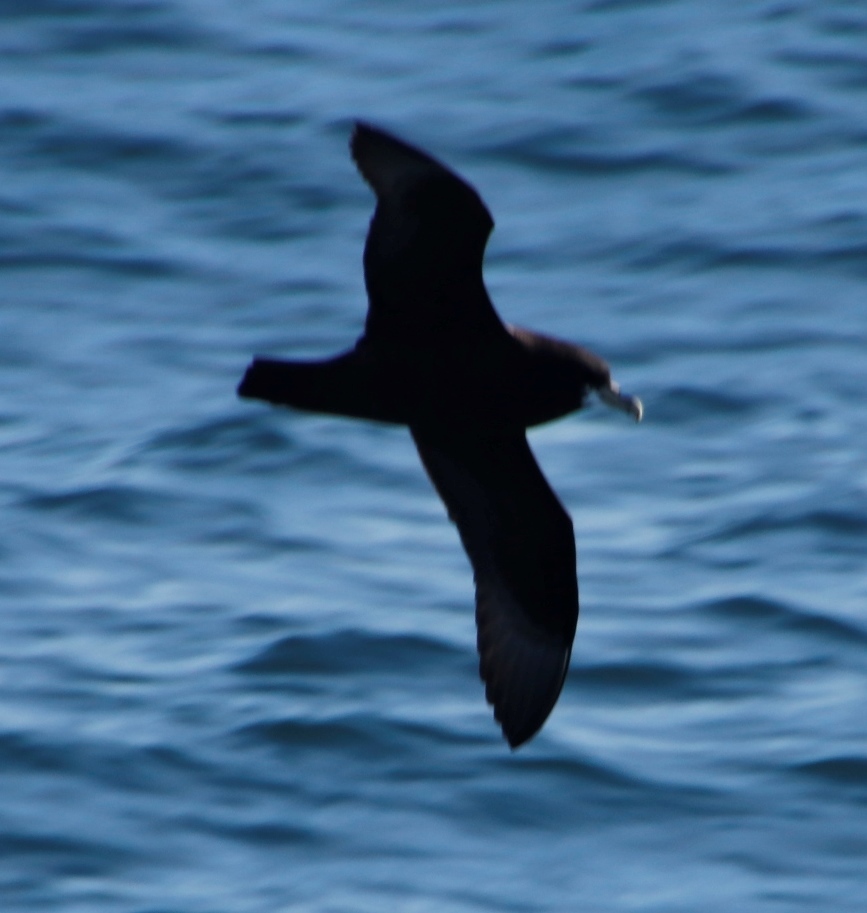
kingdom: Animalia
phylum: Chordata
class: Aves
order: Procellariiformes
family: Procellariidae
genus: Procellaria
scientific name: Procellaria aequinoctialis
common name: White-chinned petrel
